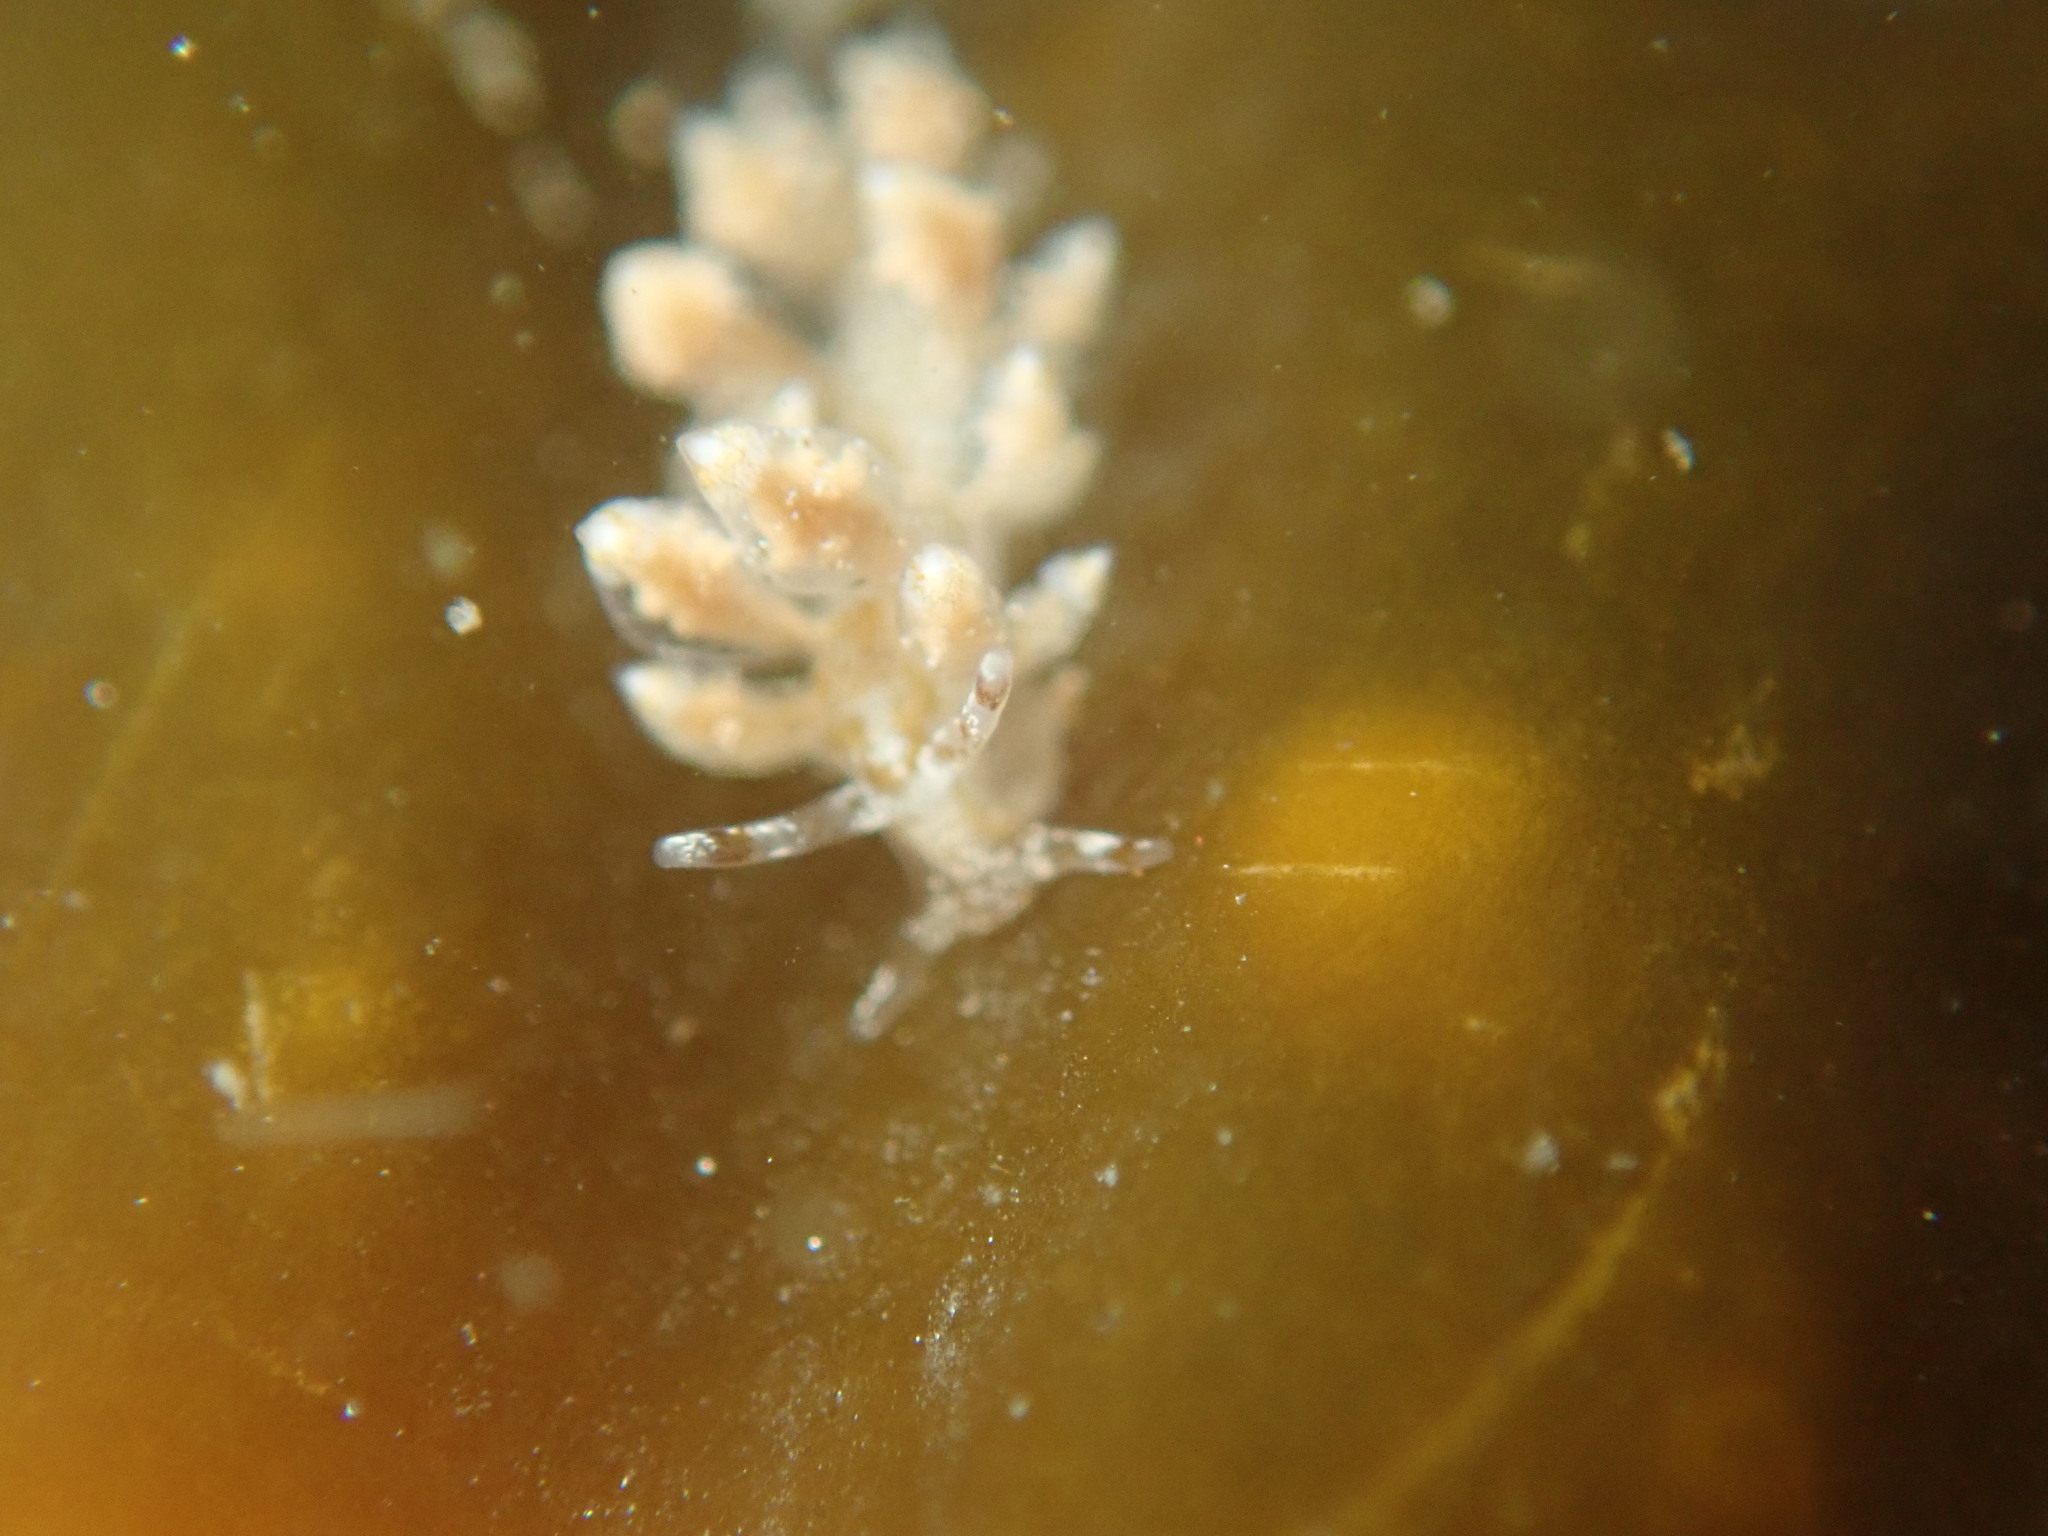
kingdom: Animalia
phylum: Mollusca
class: Gastropoda
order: Nudibranchia
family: Eubranchidae
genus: Eubranchus
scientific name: Eubranchus olivaceus
